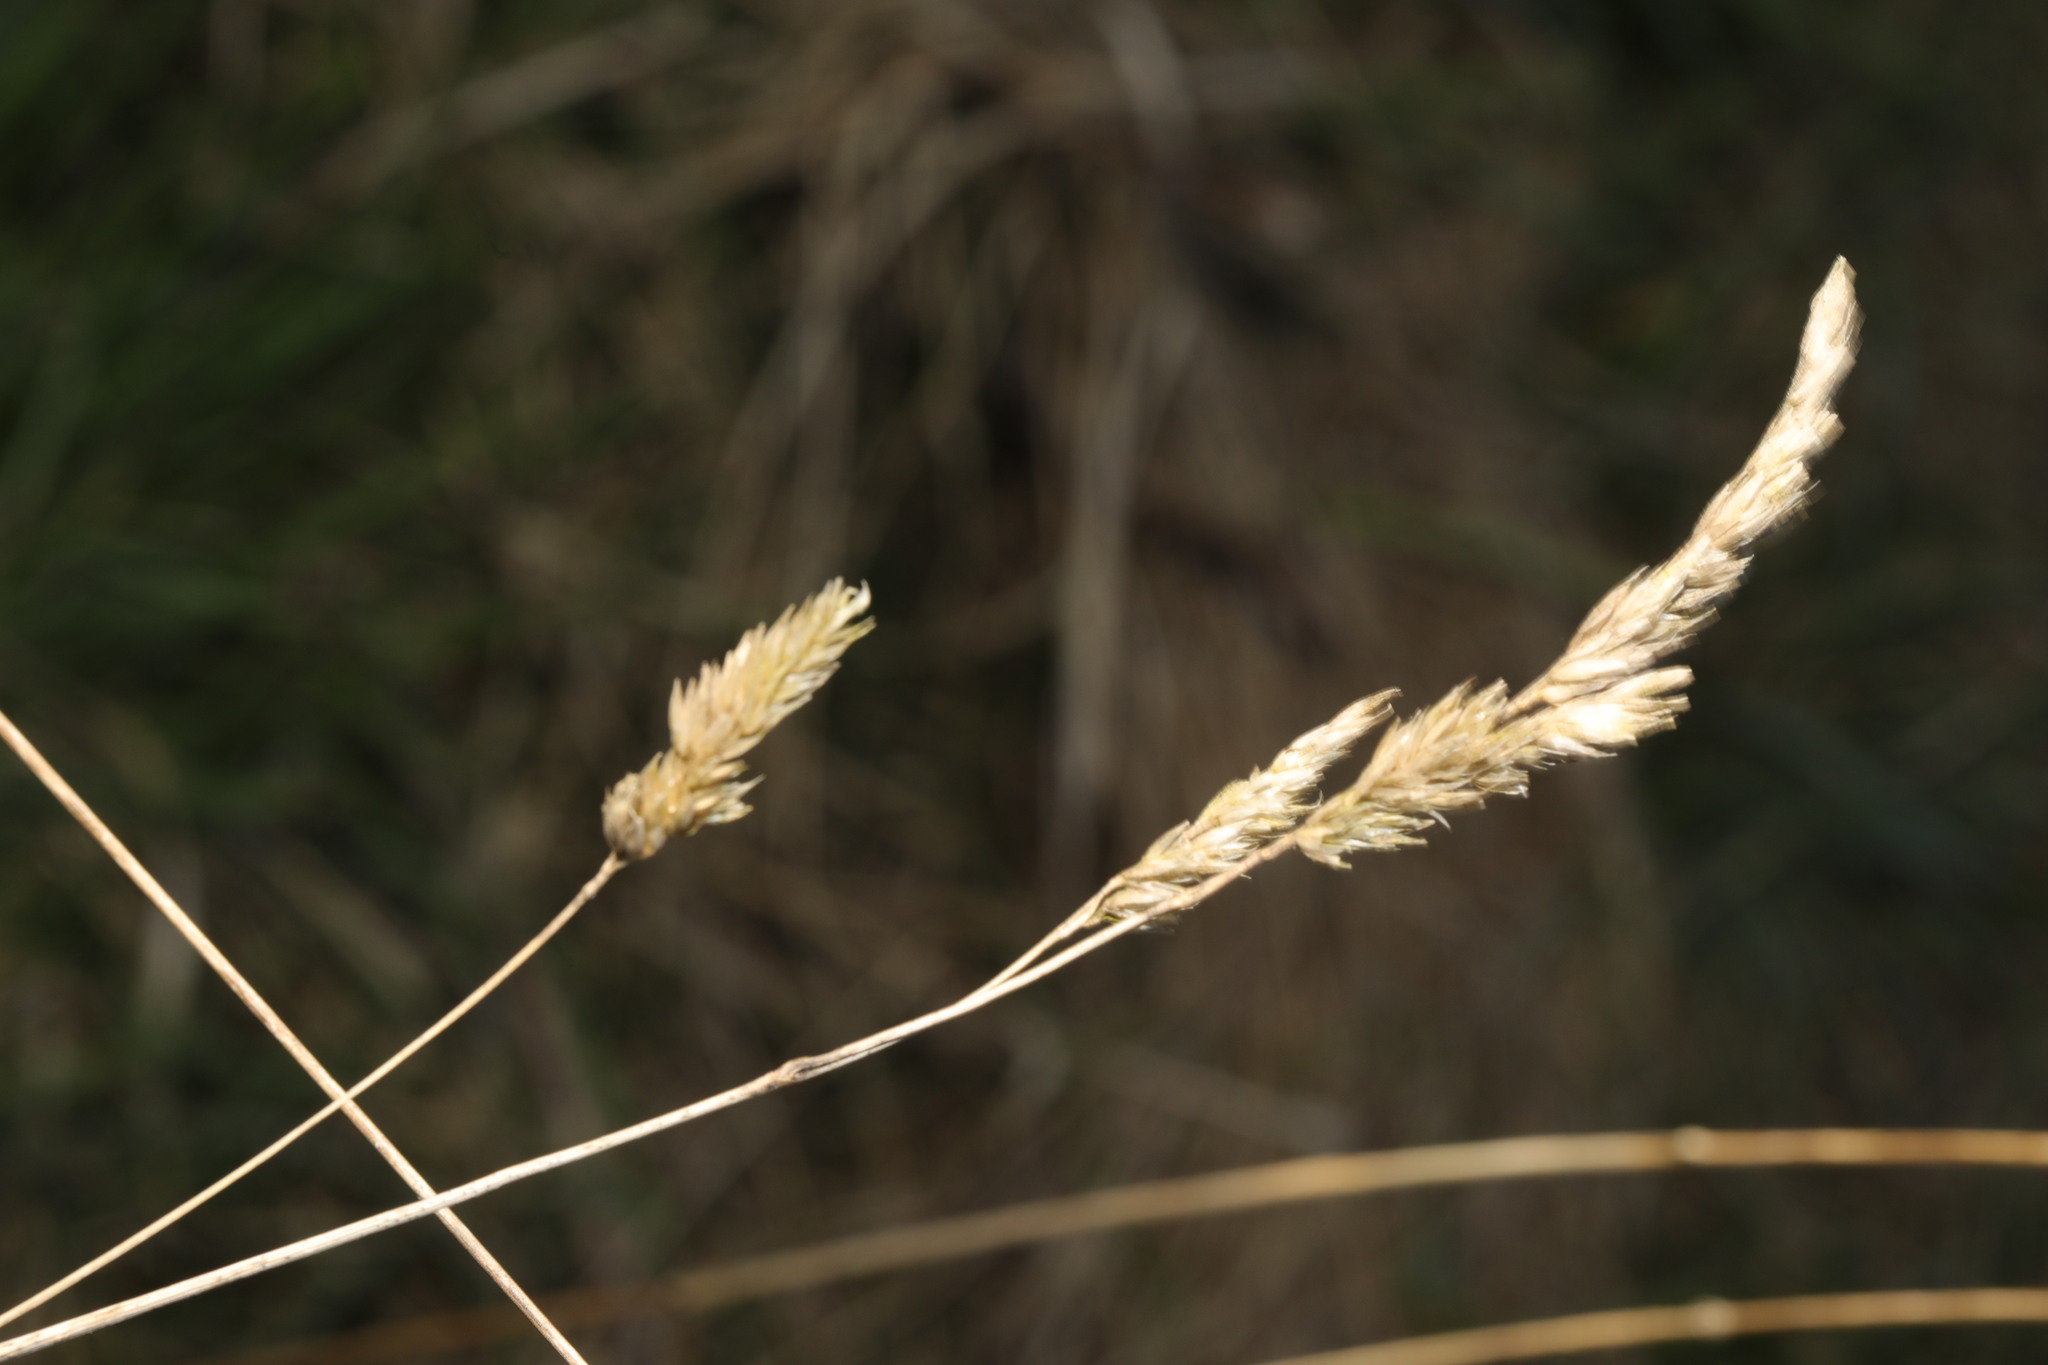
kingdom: Plantae
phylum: Tracheophyta
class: Liliopsida
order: Poales
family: Poaceae
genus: Dactylis
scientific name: Dactylis glomerata
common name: Orchardgrass
